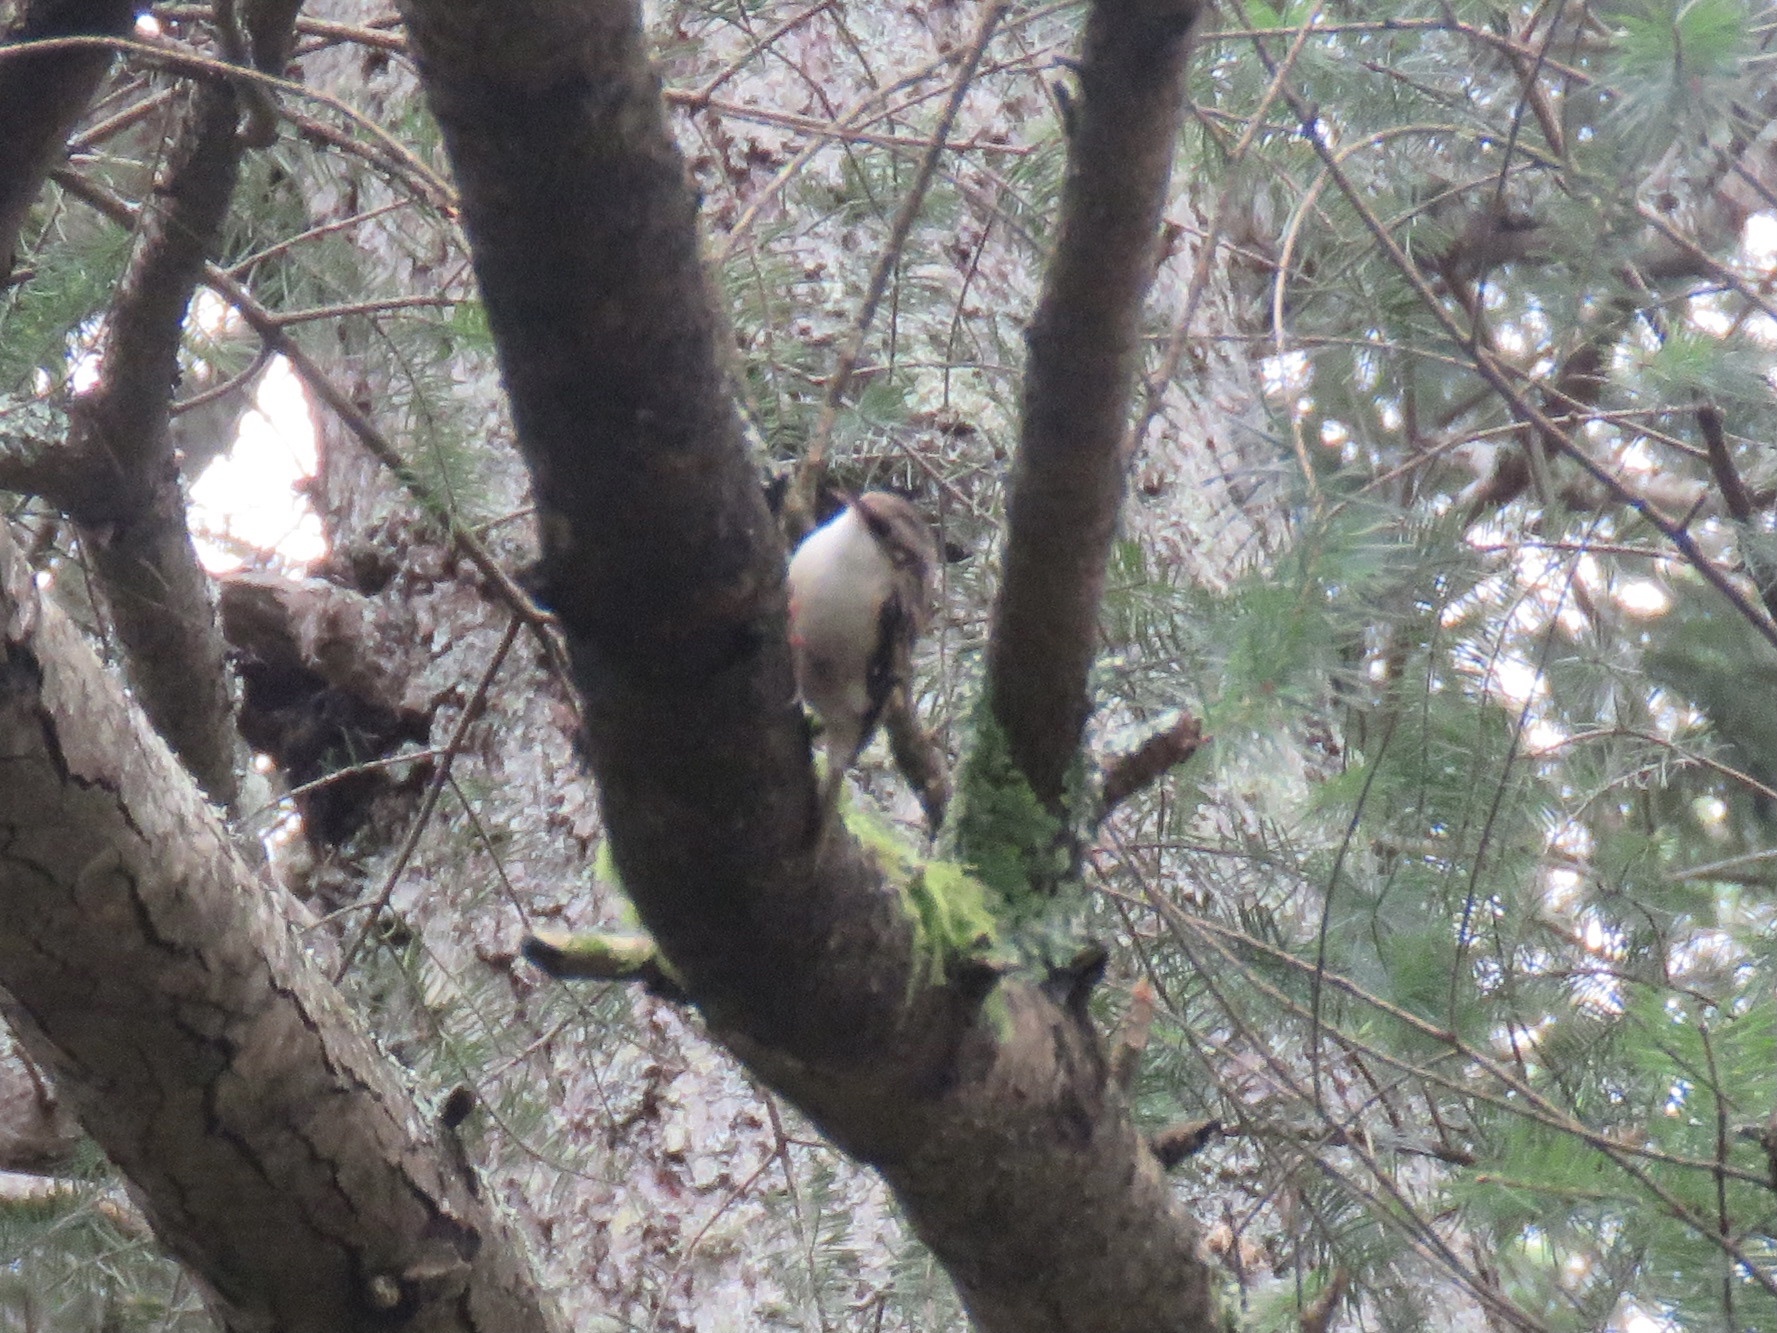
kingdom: Animalia
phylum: Chordata
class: Aves
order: Passeriformes
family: Certhiidae
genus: Certhia
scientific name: Certhia americana
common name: Brown creeper
